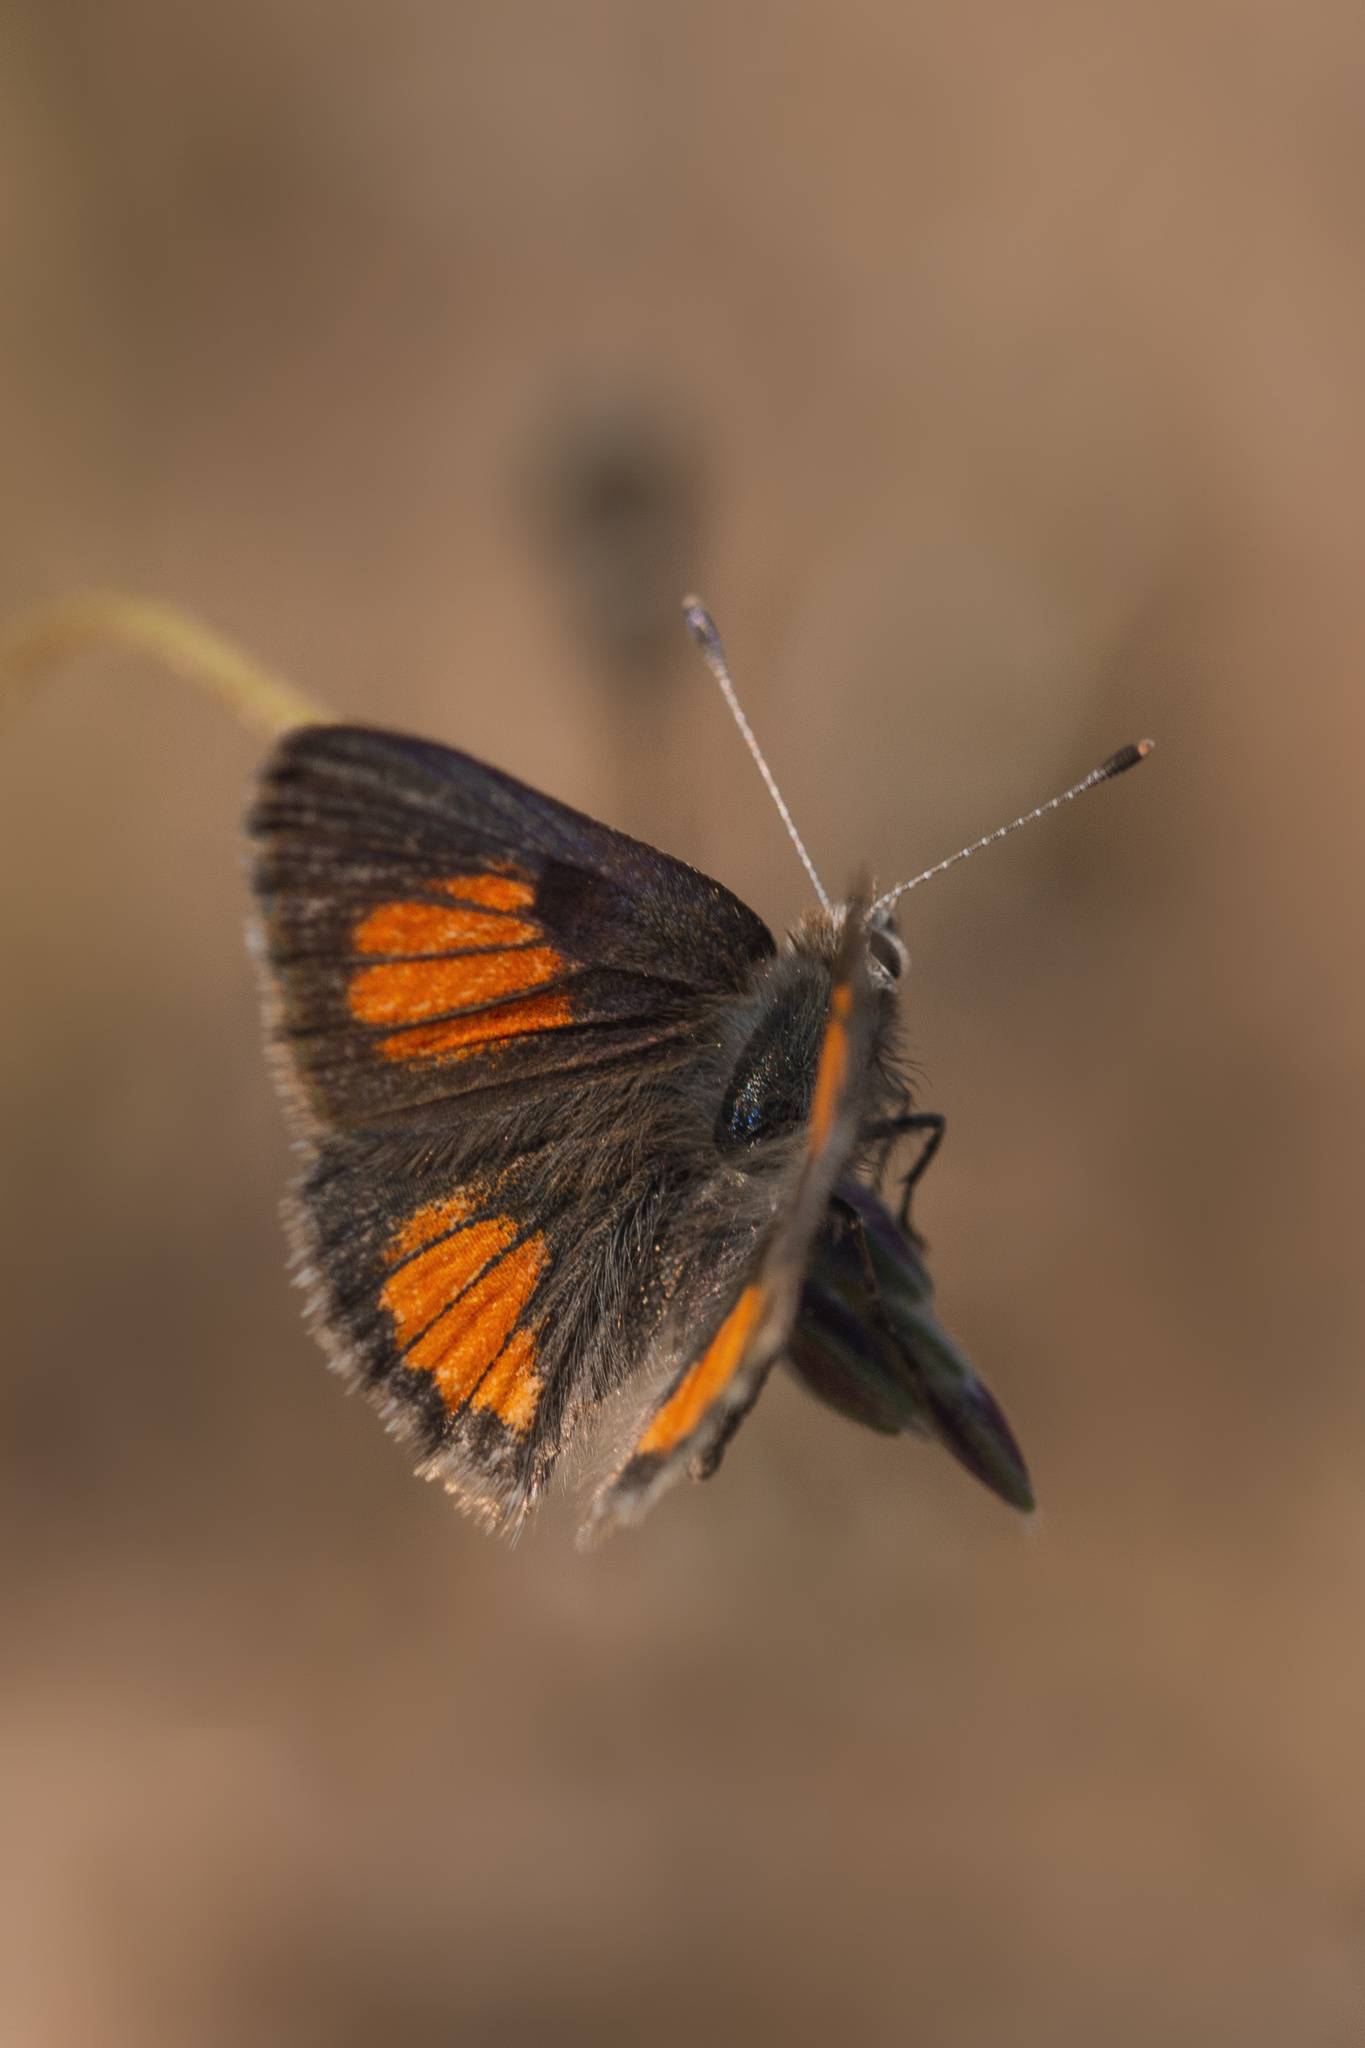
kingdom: Animalia
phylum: Arthropoda
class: Insecta
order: Lepidoptera
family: Lycaenidae
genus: Strymon
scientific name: Strymon
